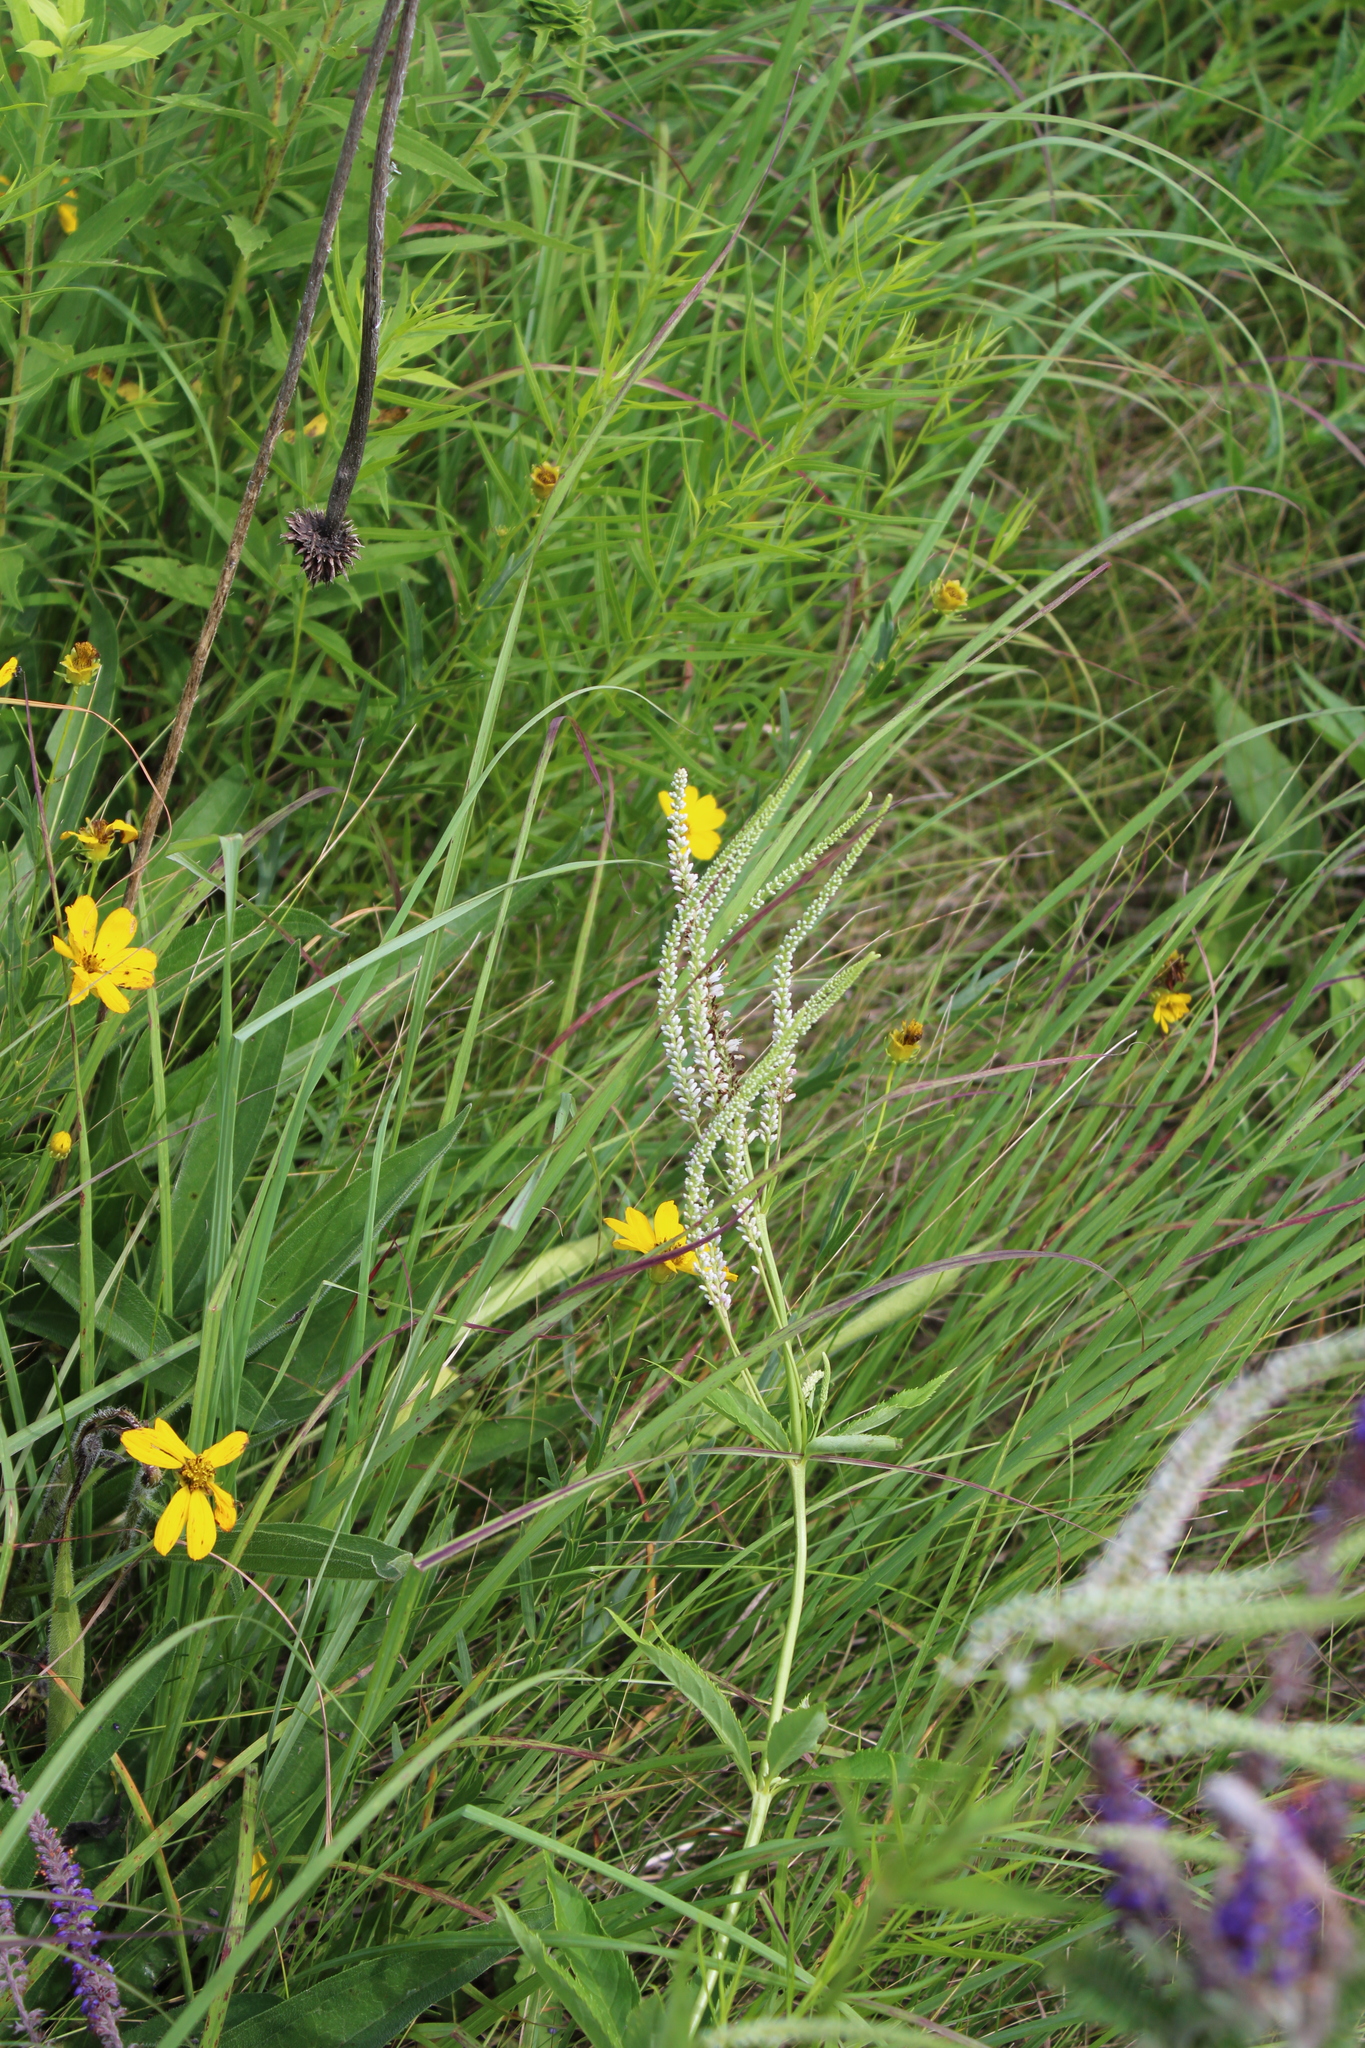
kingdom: Plantae
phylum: Tracheophyta
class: Magnoliopsida
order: Lamiales
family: Plantaginaceae
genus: Veronicastrum
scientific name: Veronicastrum virginicum
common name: Blackroot
